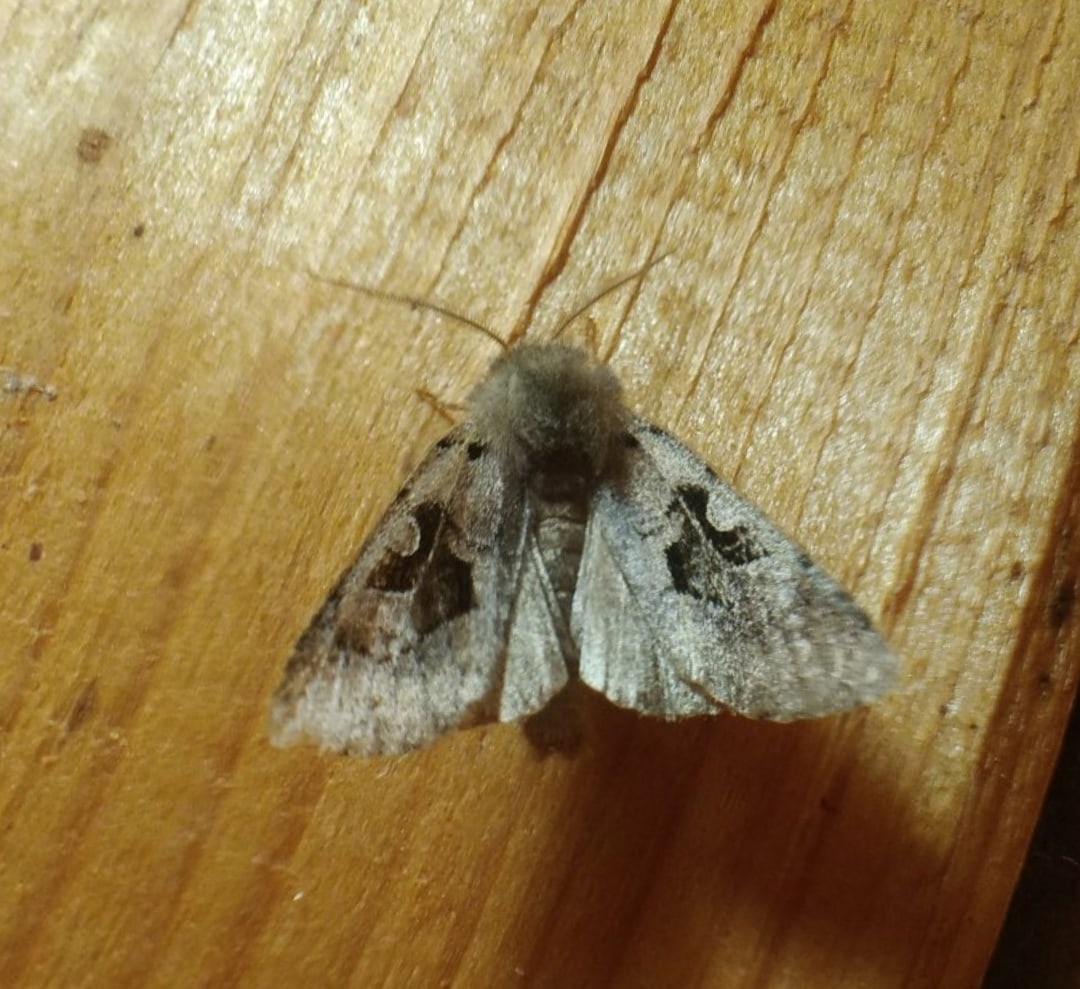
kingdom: Animalia
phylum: Arthropoda
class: Insecta
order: Lepidoptera
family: Noctuidae
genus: Orthosia
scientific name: Orthosia gothica
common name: Hebrew character
